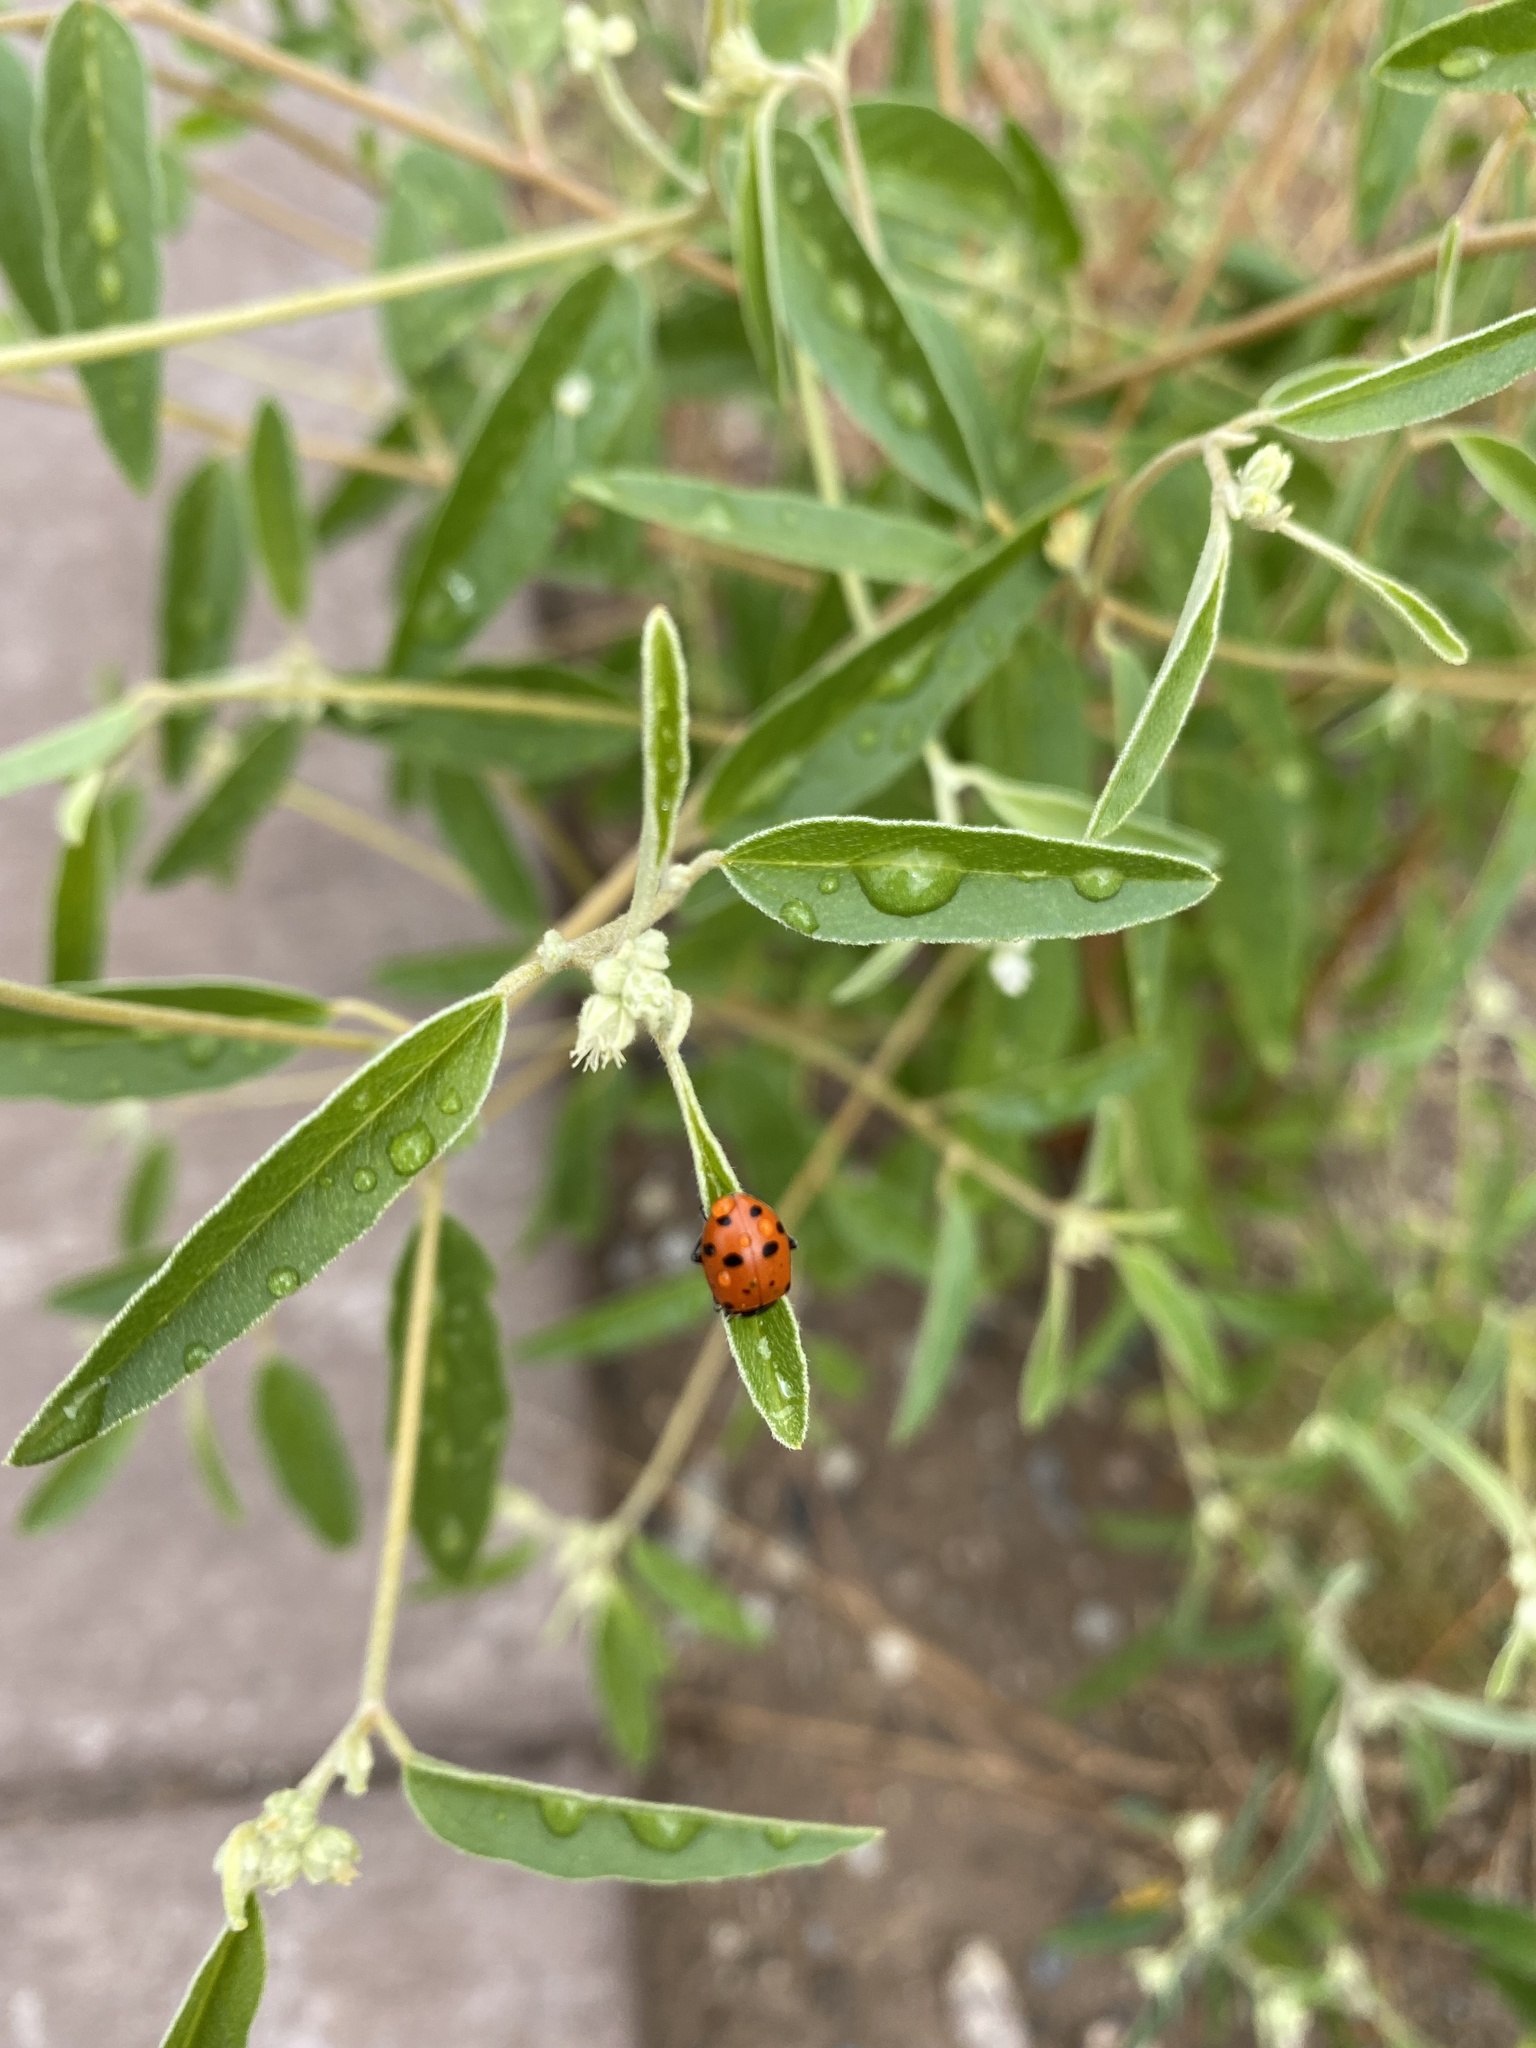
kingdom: Plantae
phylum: Tracheophyta
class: Magnoliopsida
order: Malpighiales
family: Euphorbiaceae
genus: Croton
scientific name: Croton texensis
